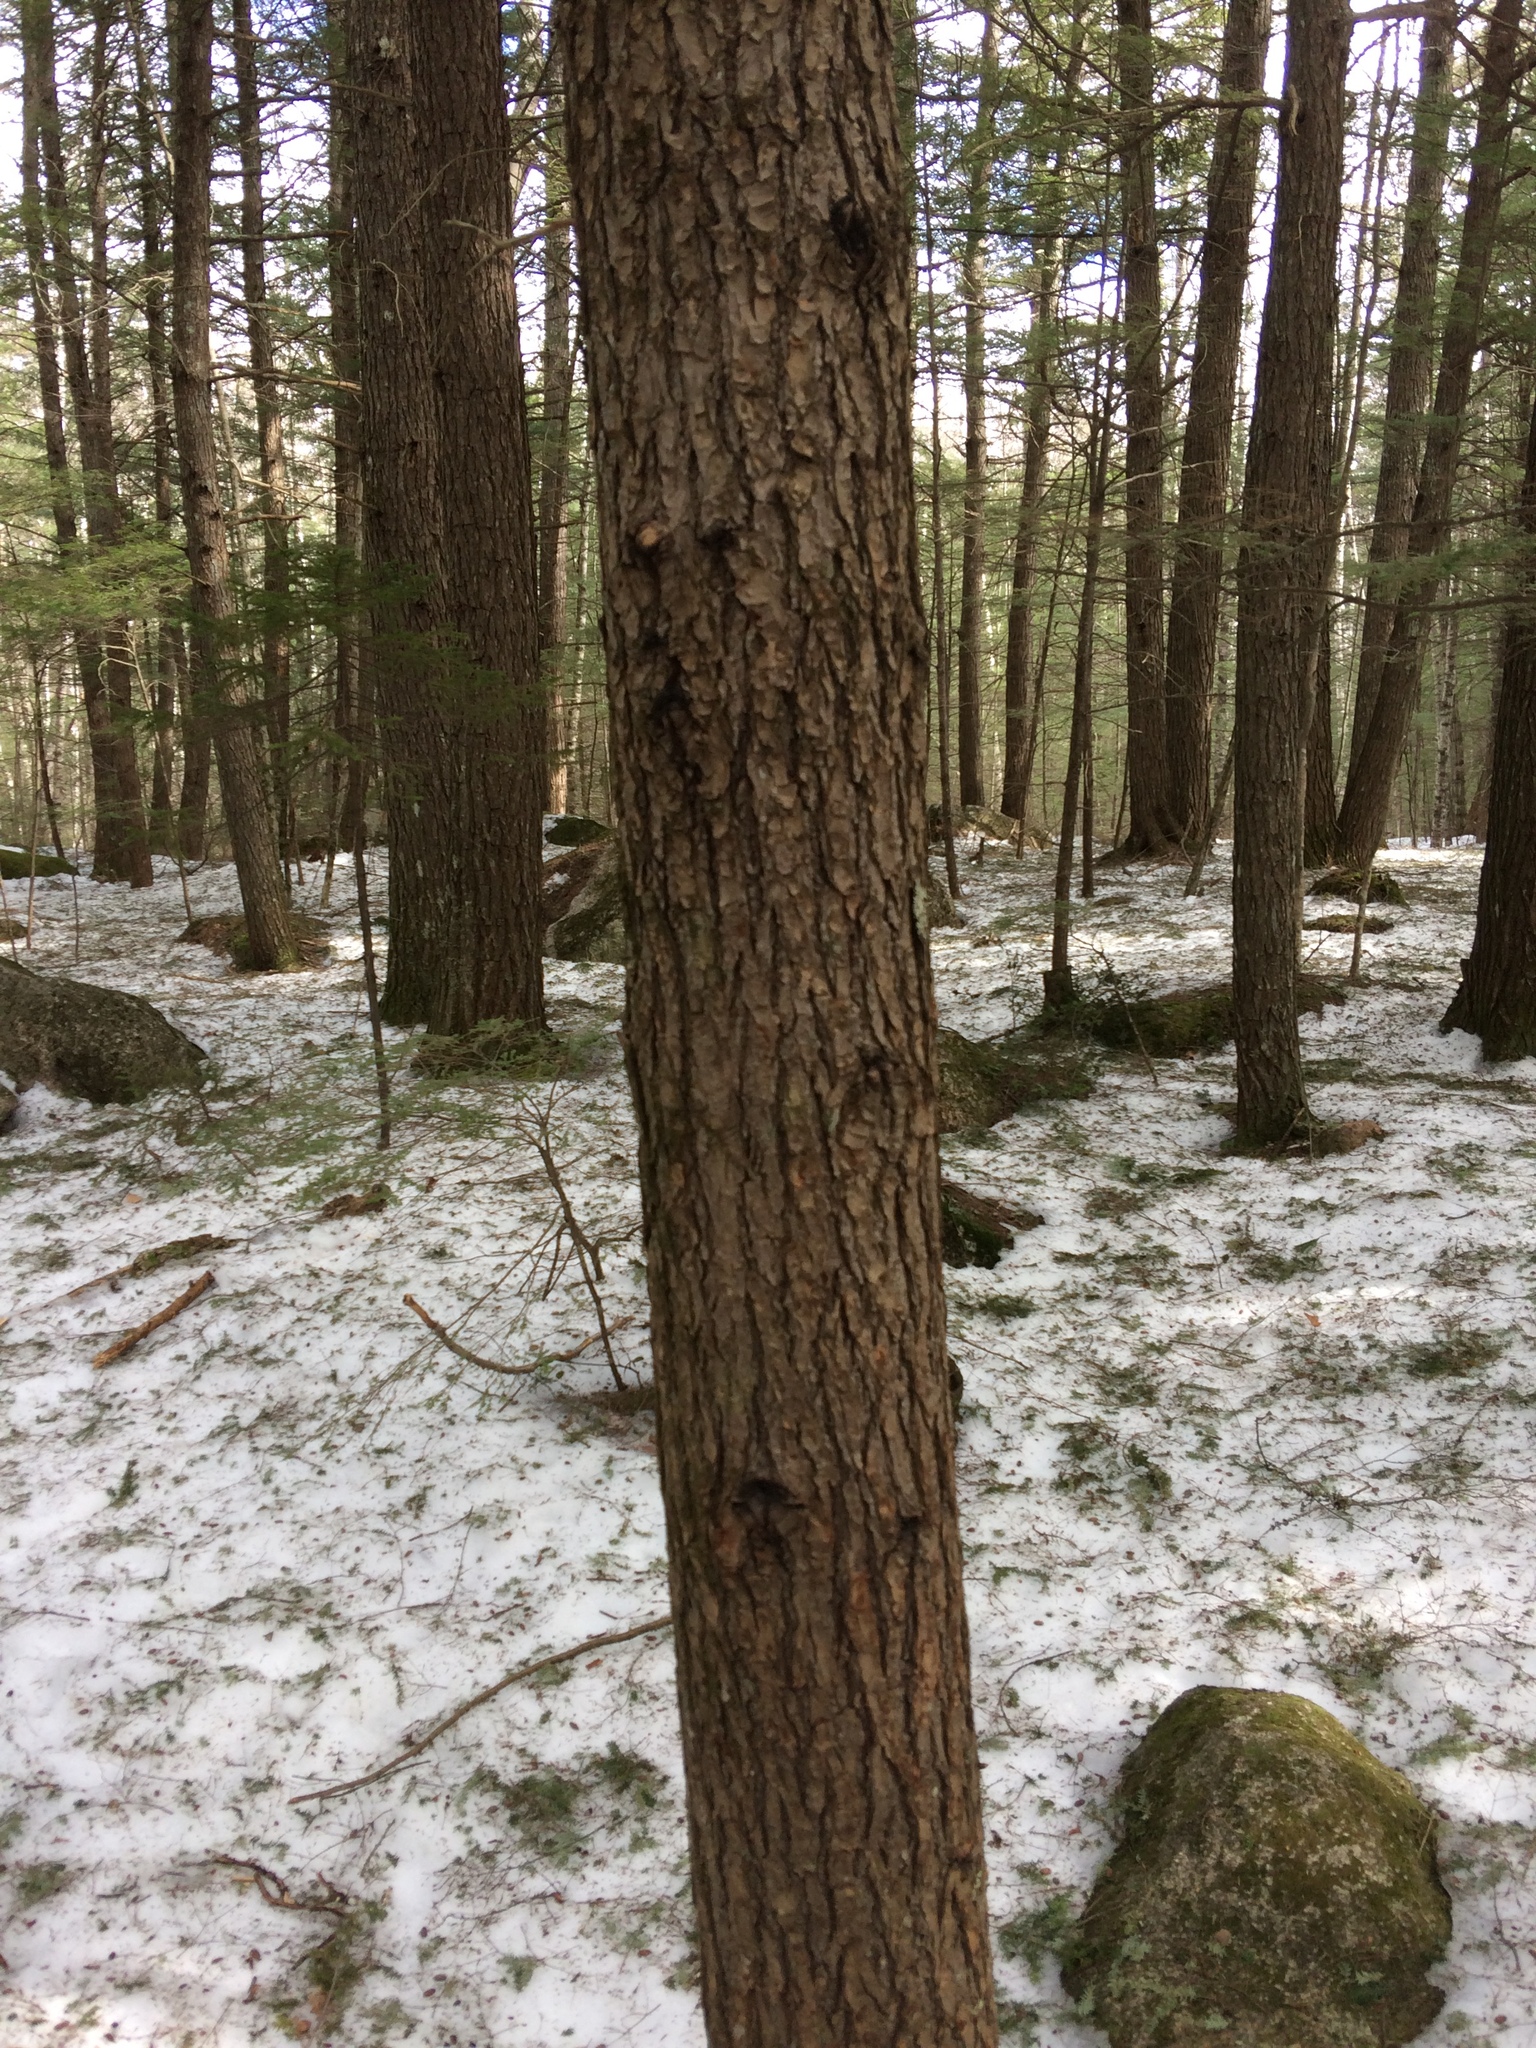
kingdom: Plantae
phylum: Tracheophyta
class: Pinopsida
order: Pinales
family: Pinaceae
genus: Tsuga
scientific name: Tsuga canadensis
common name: Eastern hemlock
